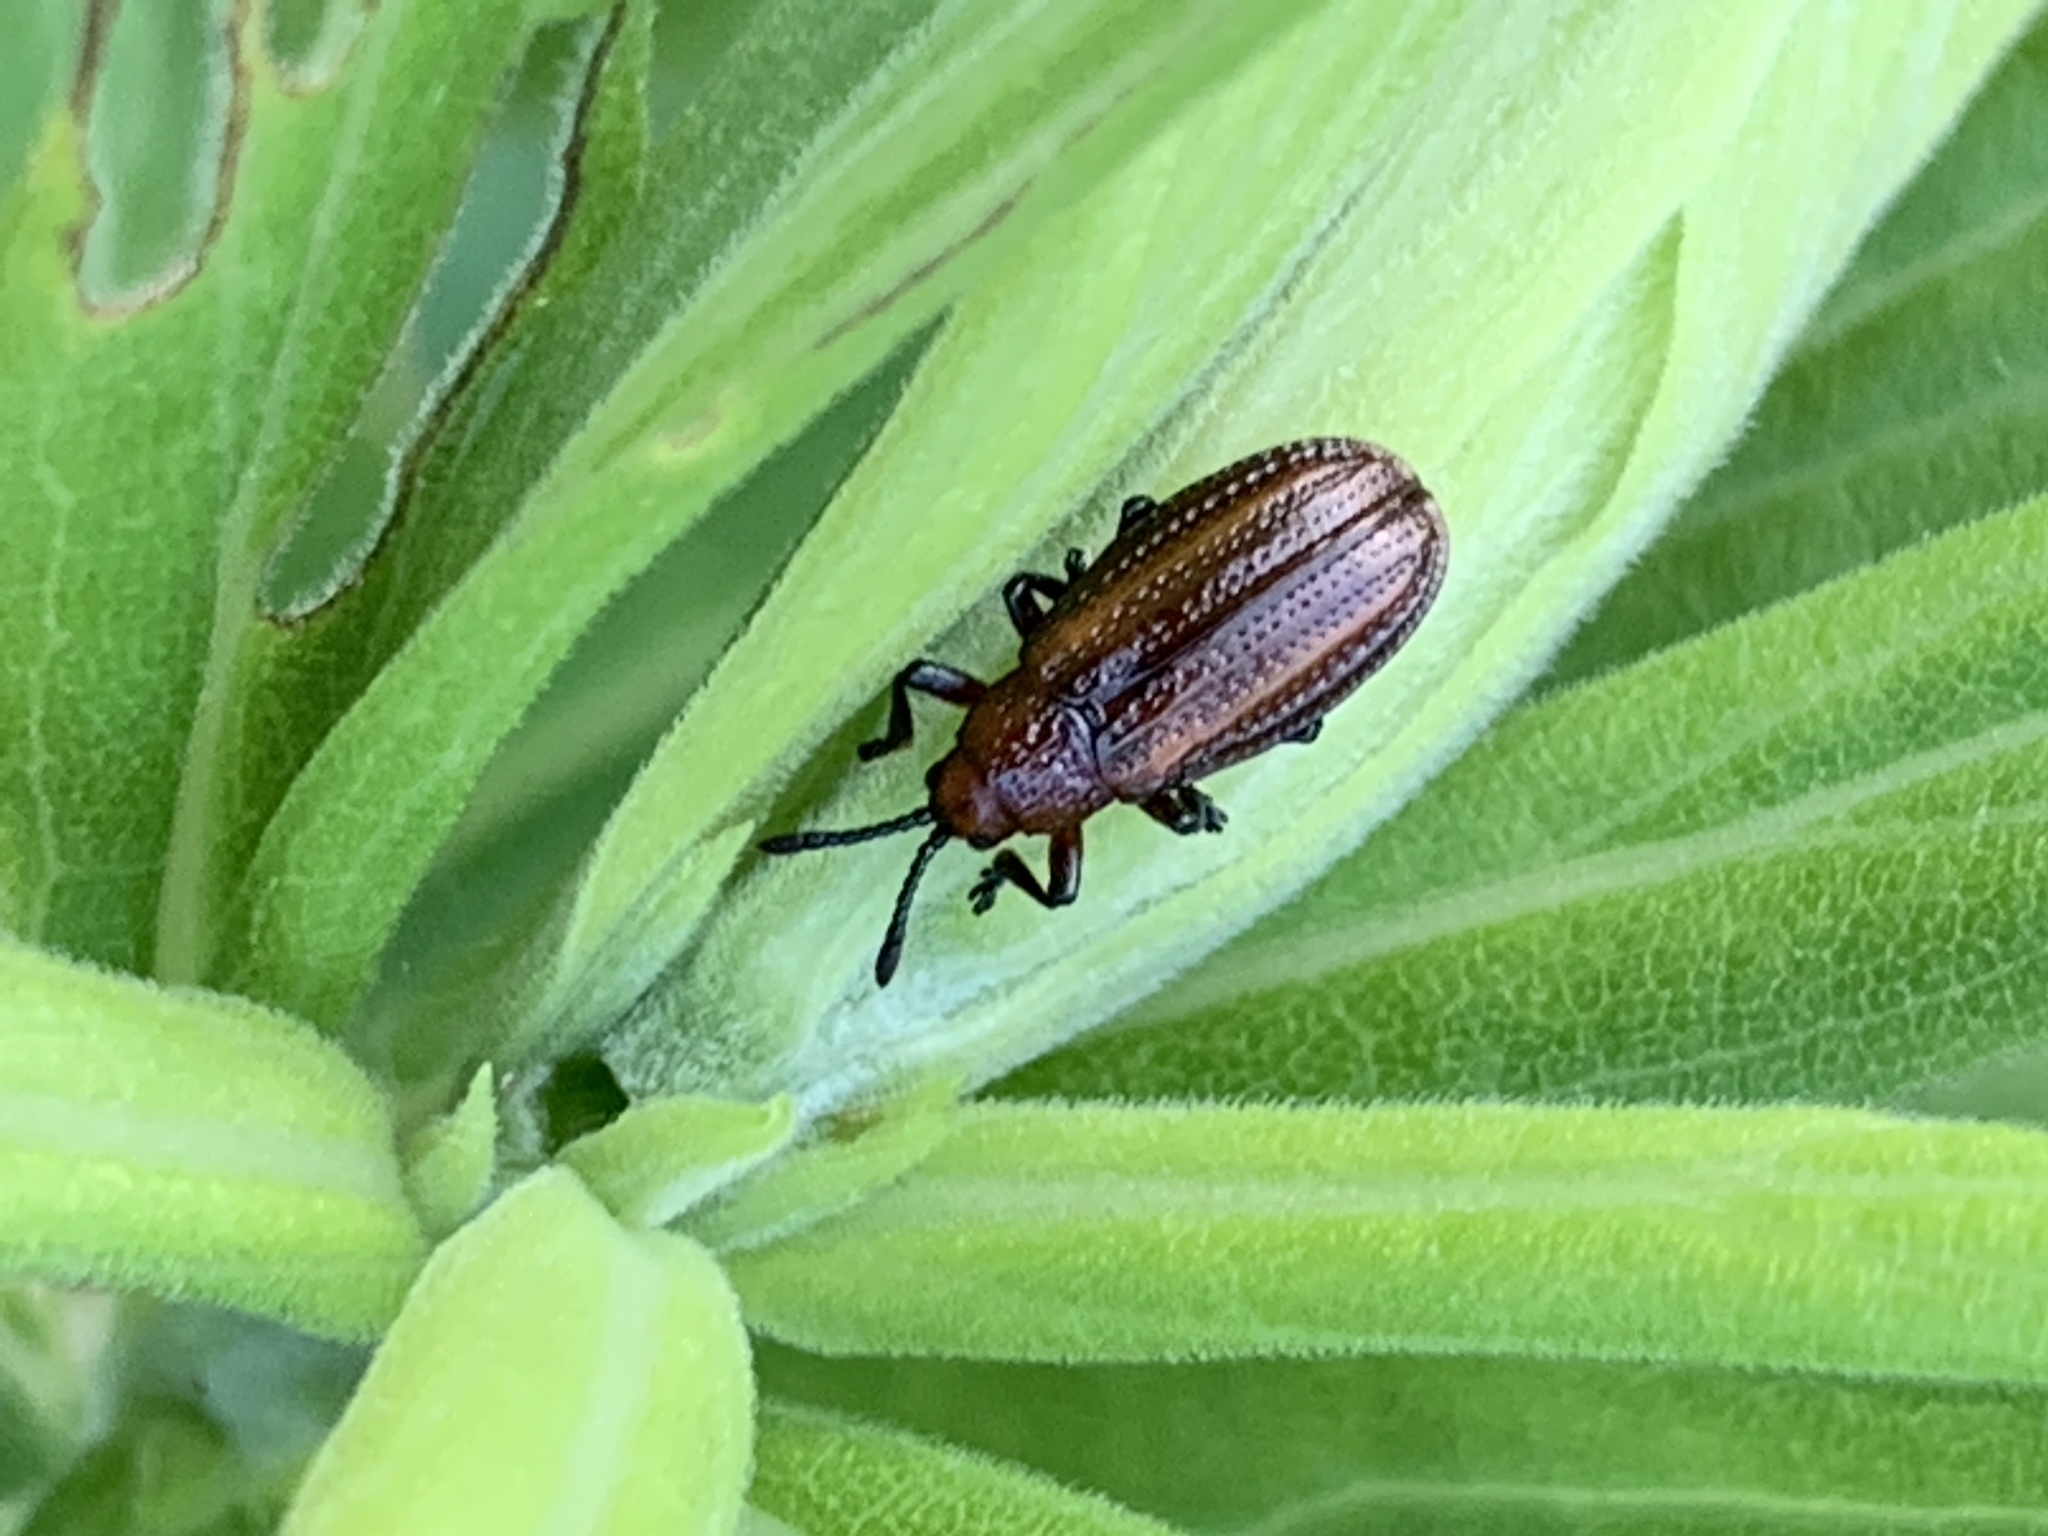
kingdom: Animalia
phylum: Arthropoda
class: Insecta
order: Coleoptera
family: Chrysomelidae
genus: Microrhopala
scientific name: Microrhopala vittata
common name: Goldenrod leaf miner beetle
